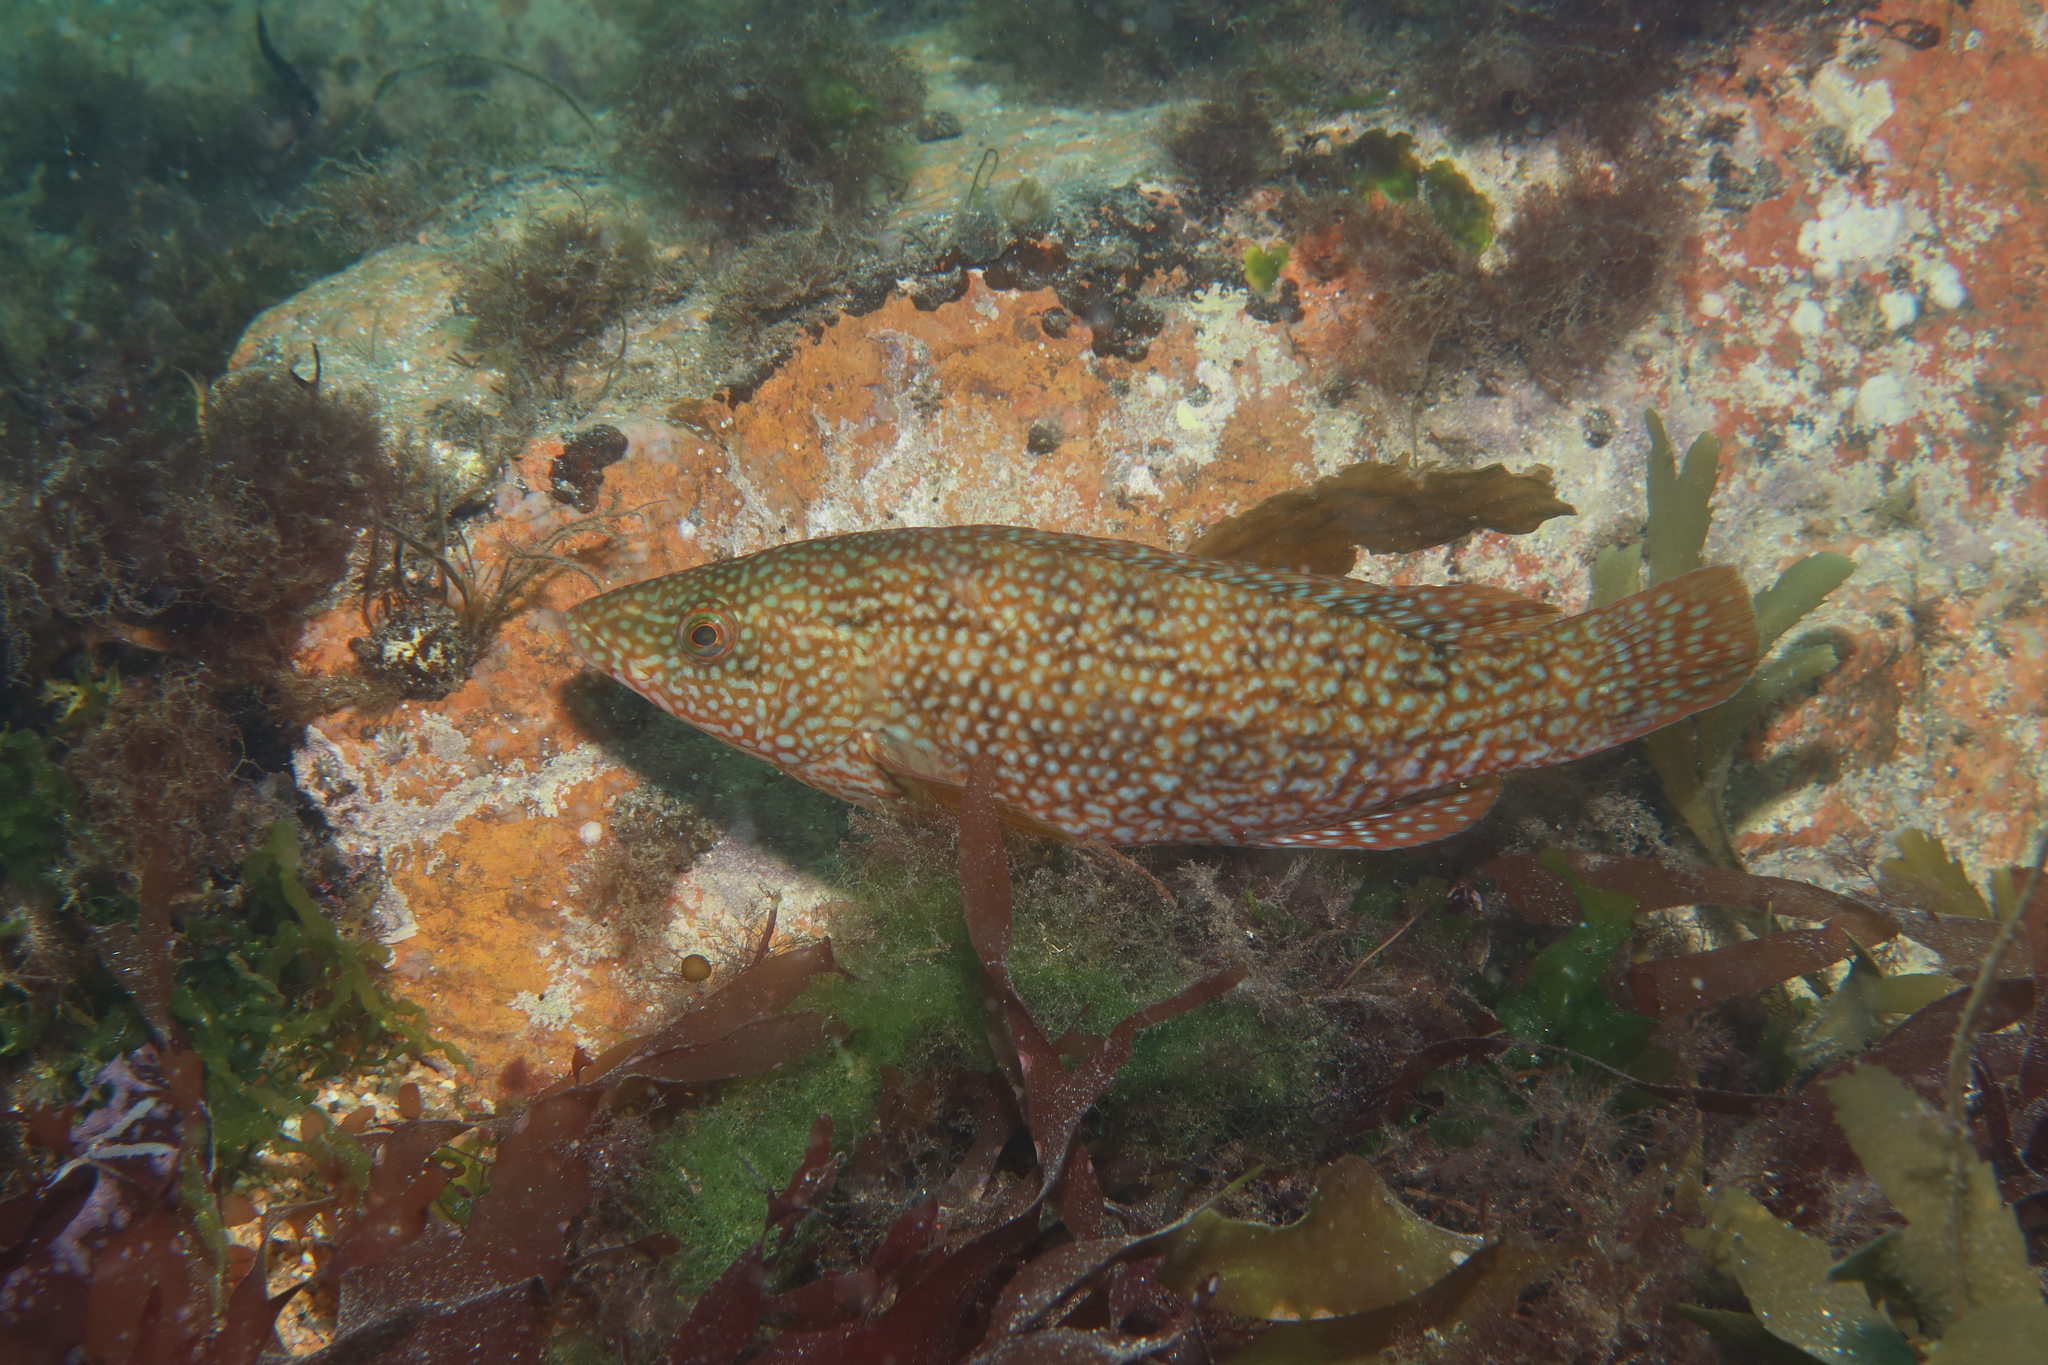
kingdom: Animalia
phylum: Chordata
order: Perciformes
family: Labridae
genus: Labrus
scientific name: Labrus bergylta
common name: Ballan wrasse
